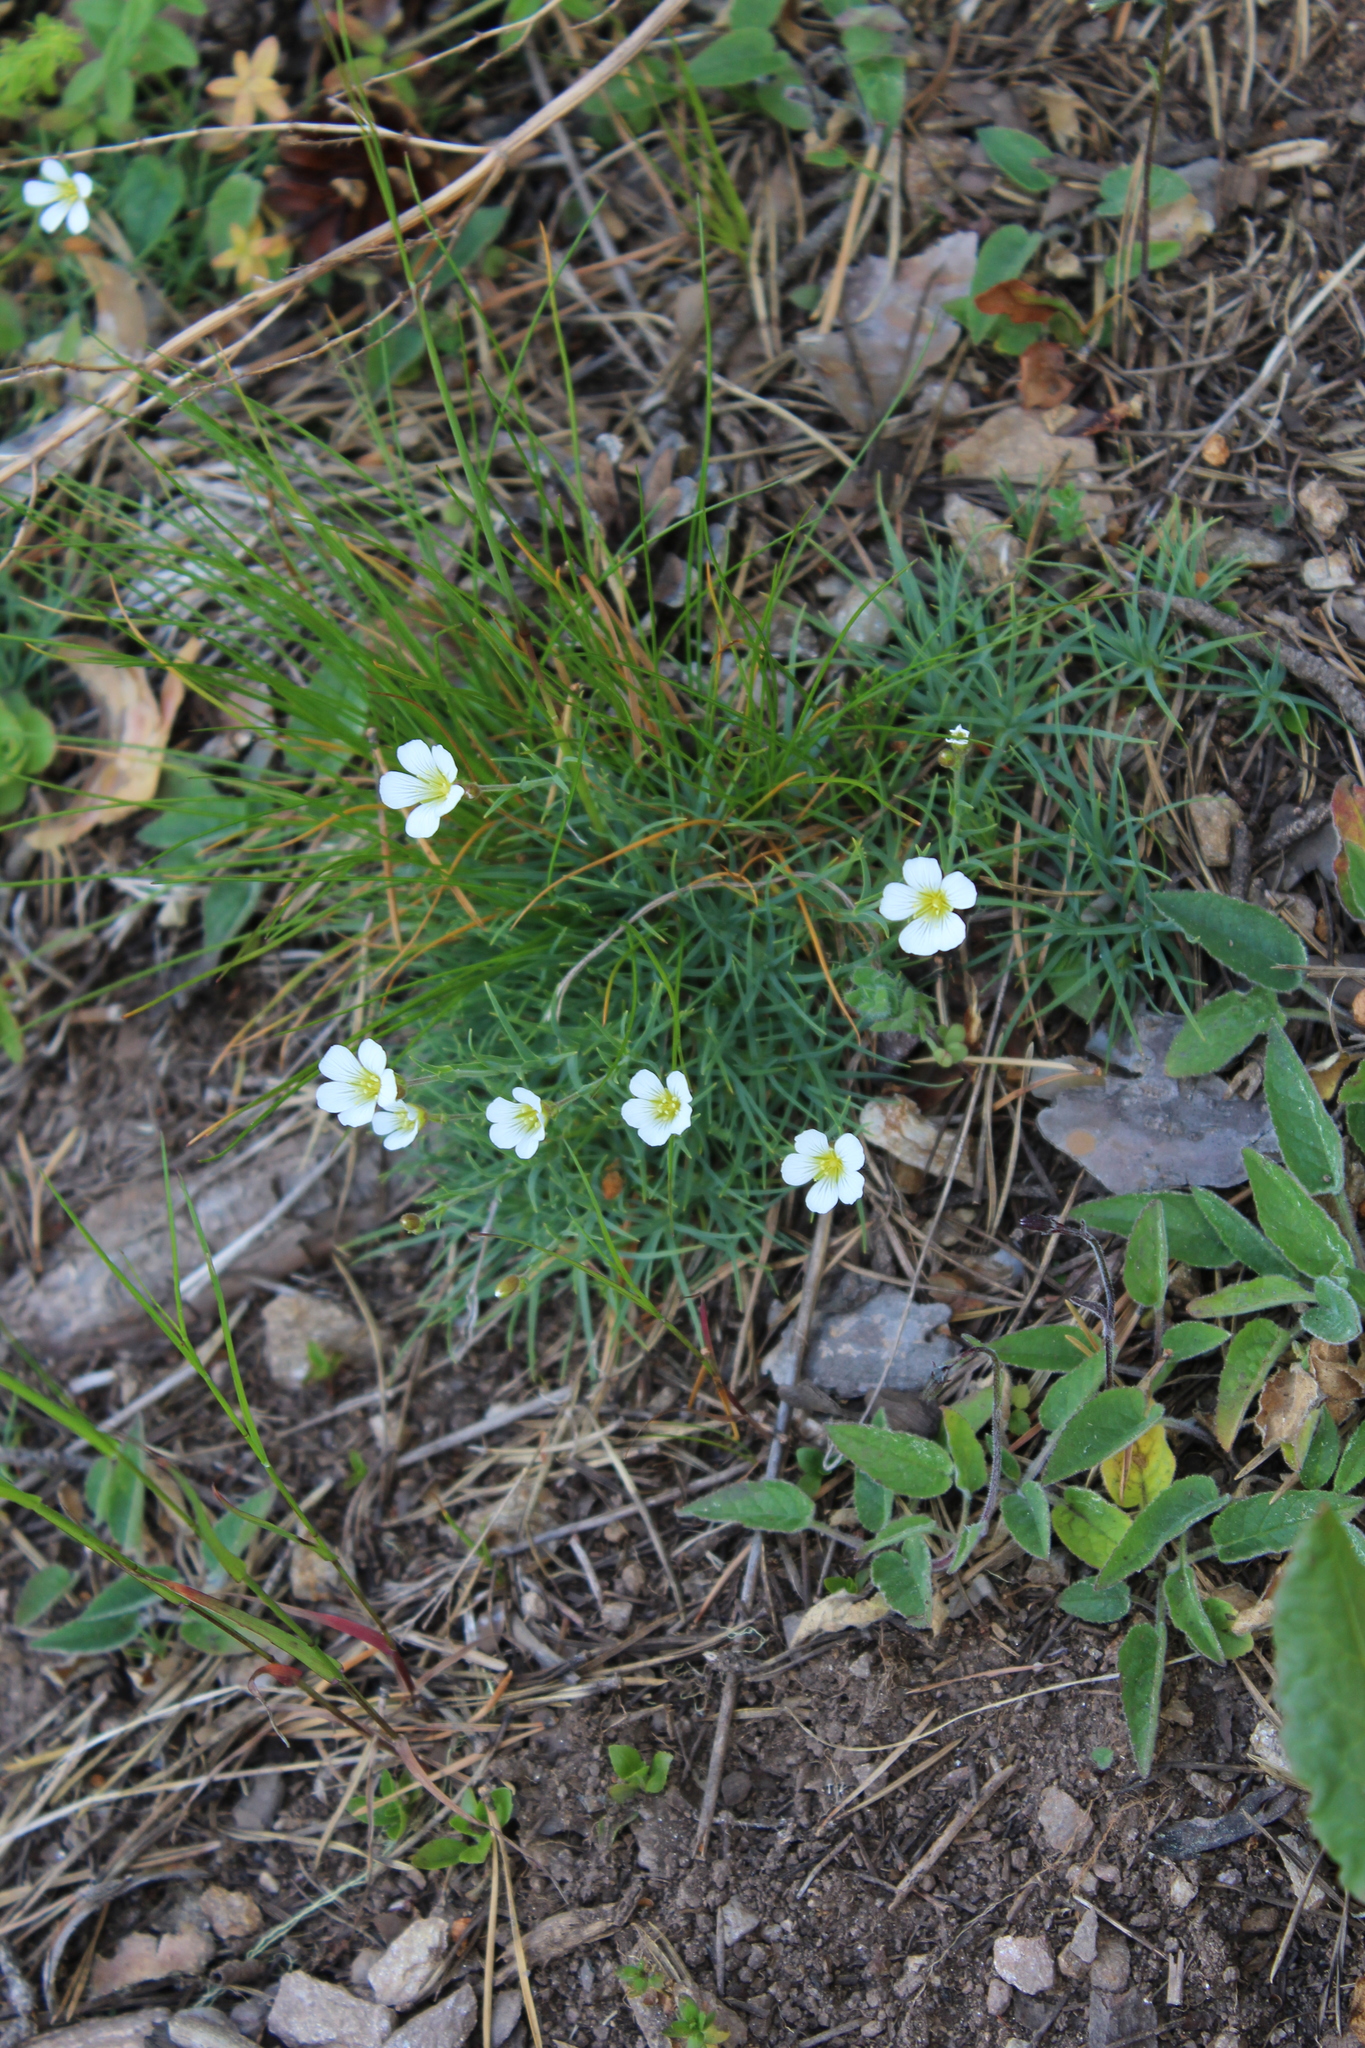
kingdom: Plantae
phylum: Tracheophyta
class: Magnoliopsida
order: Caryophyllales
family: Caryophyllaceae
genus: Cherleria
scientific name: Cherleria circassica
